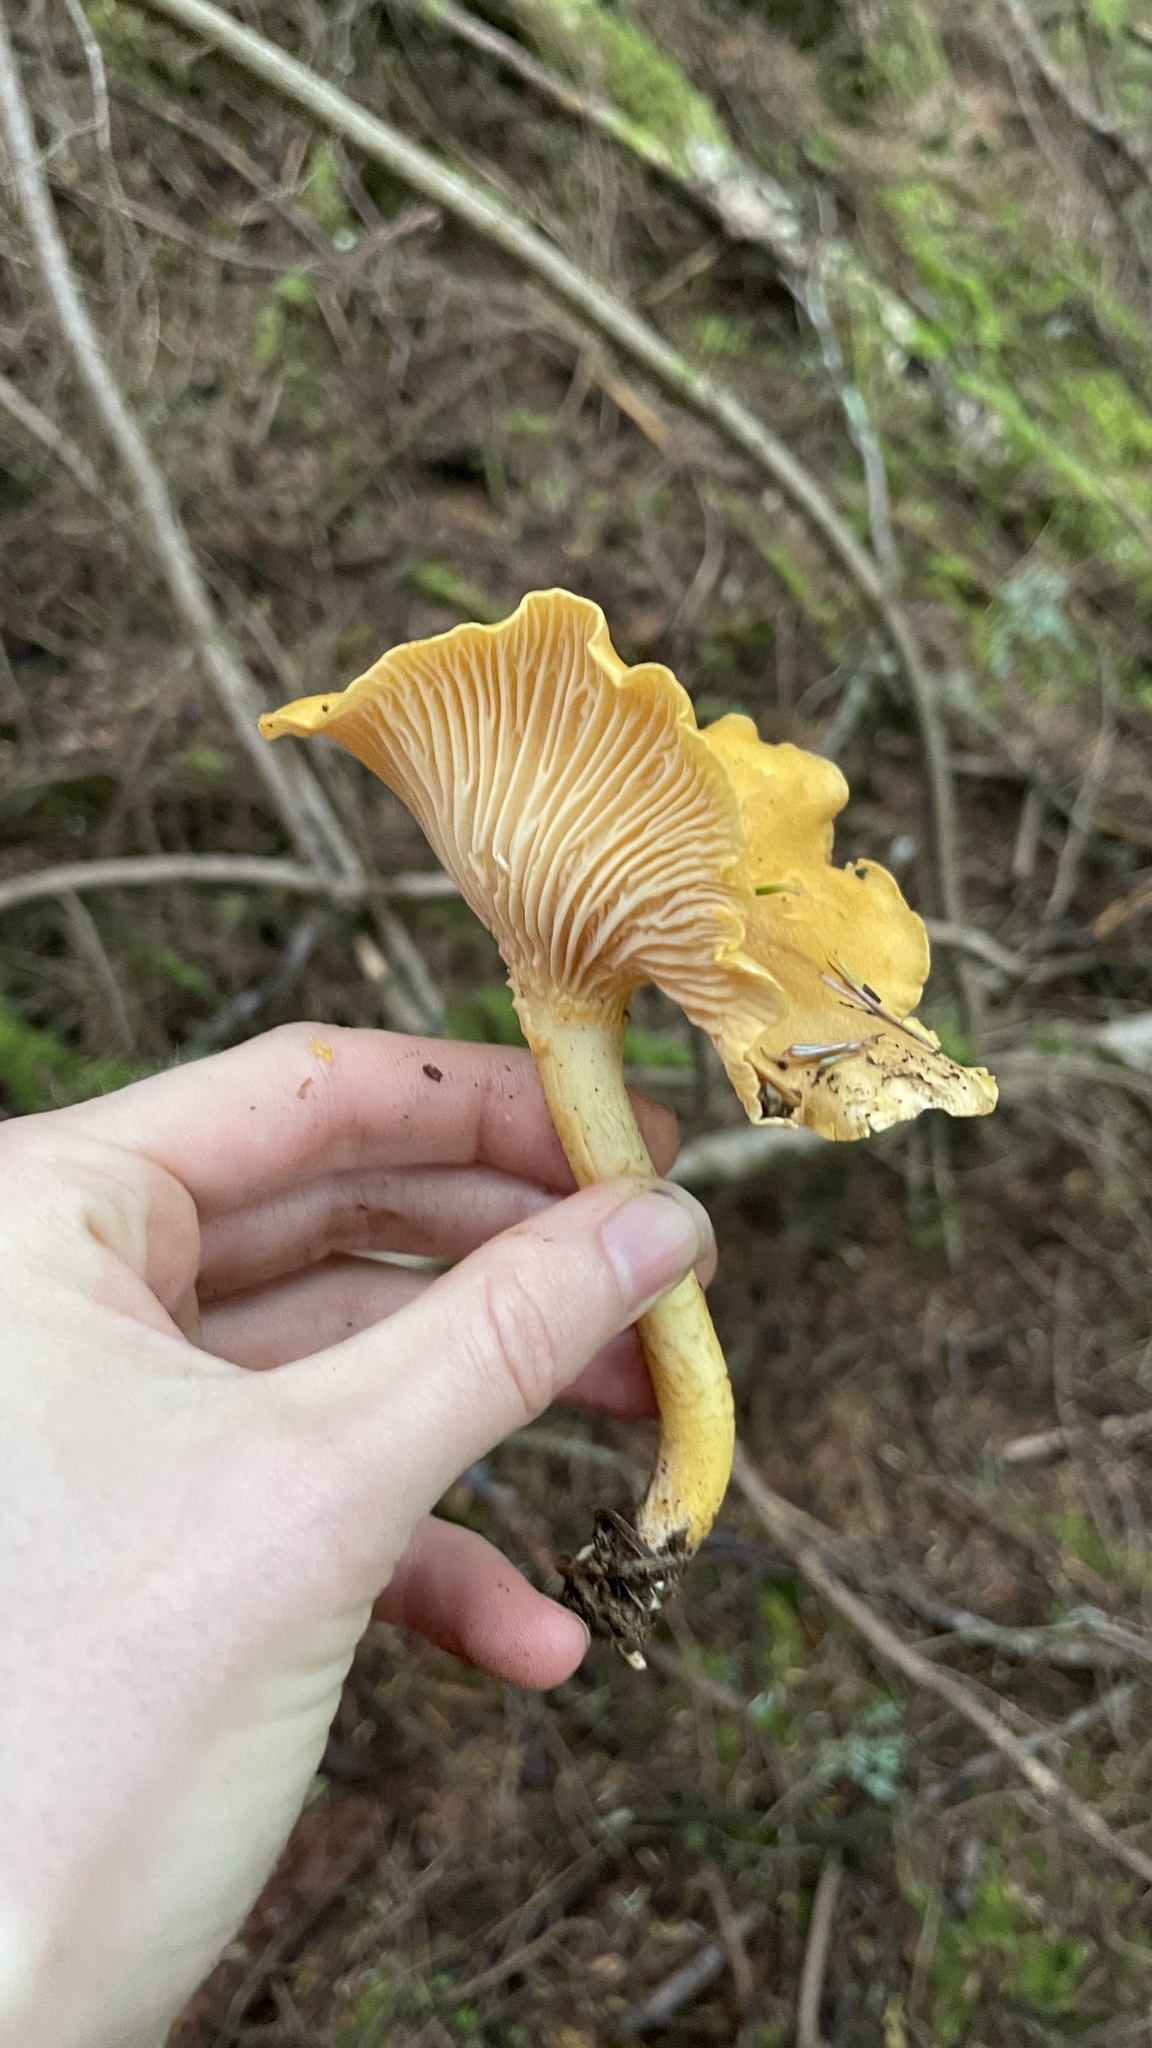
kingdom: Fungi
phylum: Basidiomycota
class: Agaricomycetes
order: Cantharellales
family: Hydnaceae
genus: Cantharellus
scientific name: Cantharellus formosus
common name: Pacific golden chanterelle
